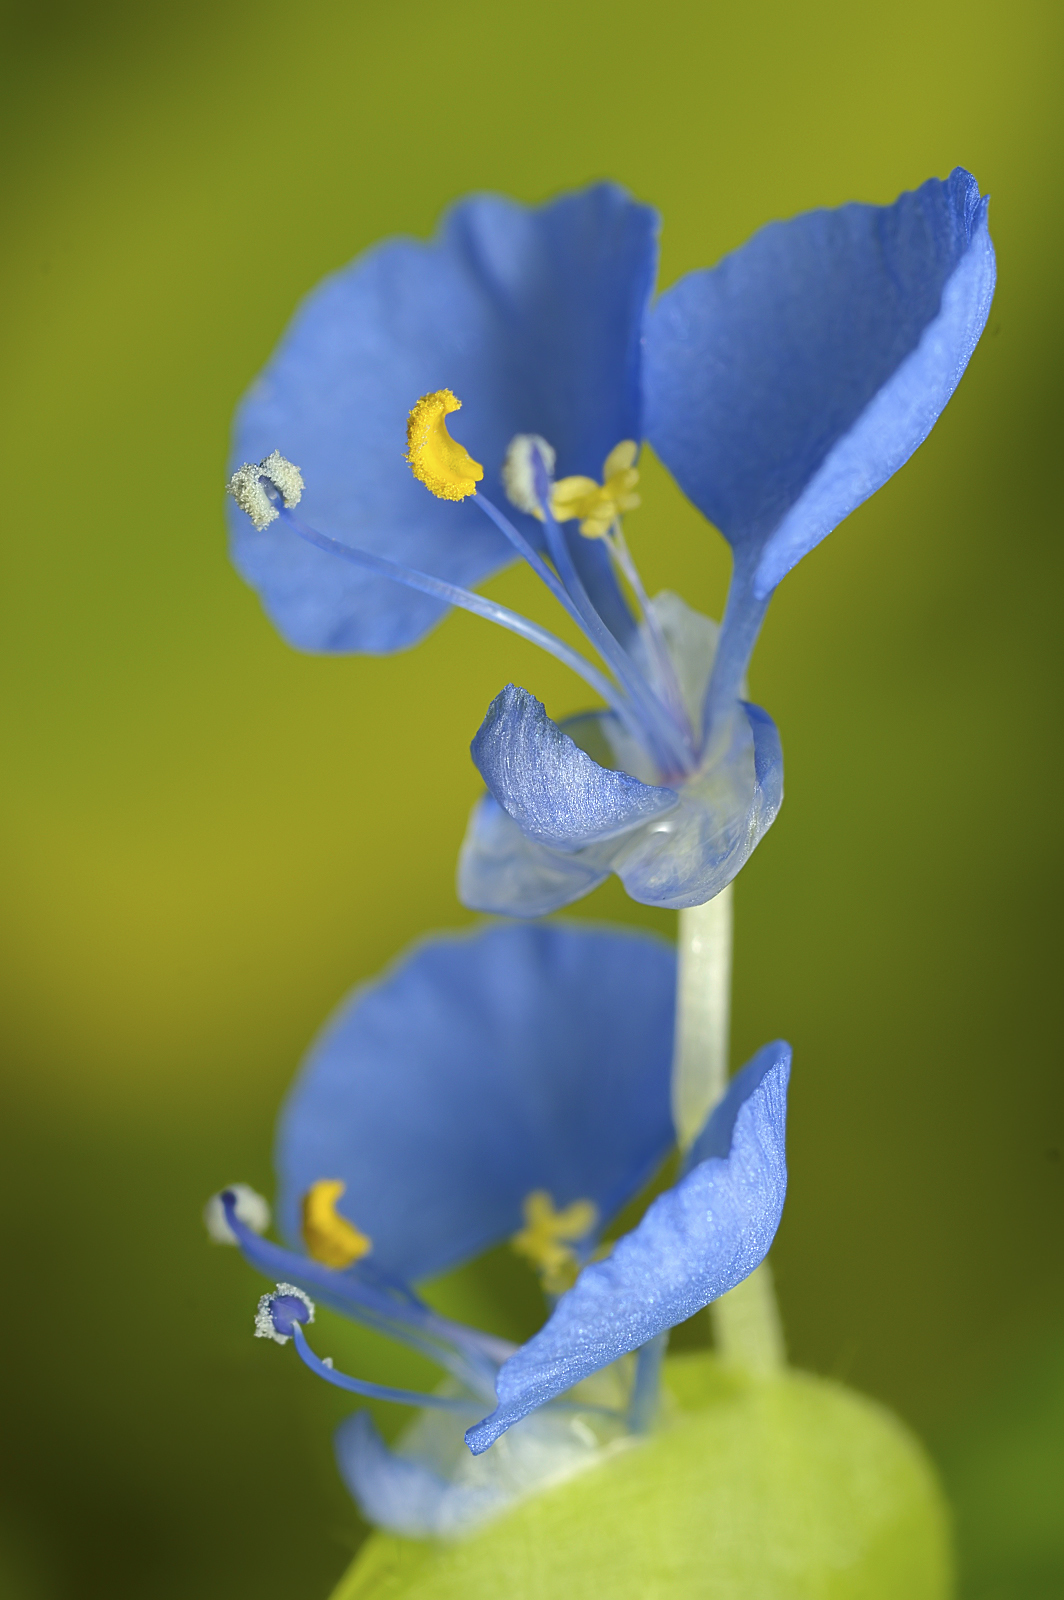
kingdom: Plantae
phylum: Tracheophyta
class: Liliopsida
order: Commelinales
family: Commelinaceae
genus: Commelina
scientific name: Commelina benghalensis
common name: Jio
